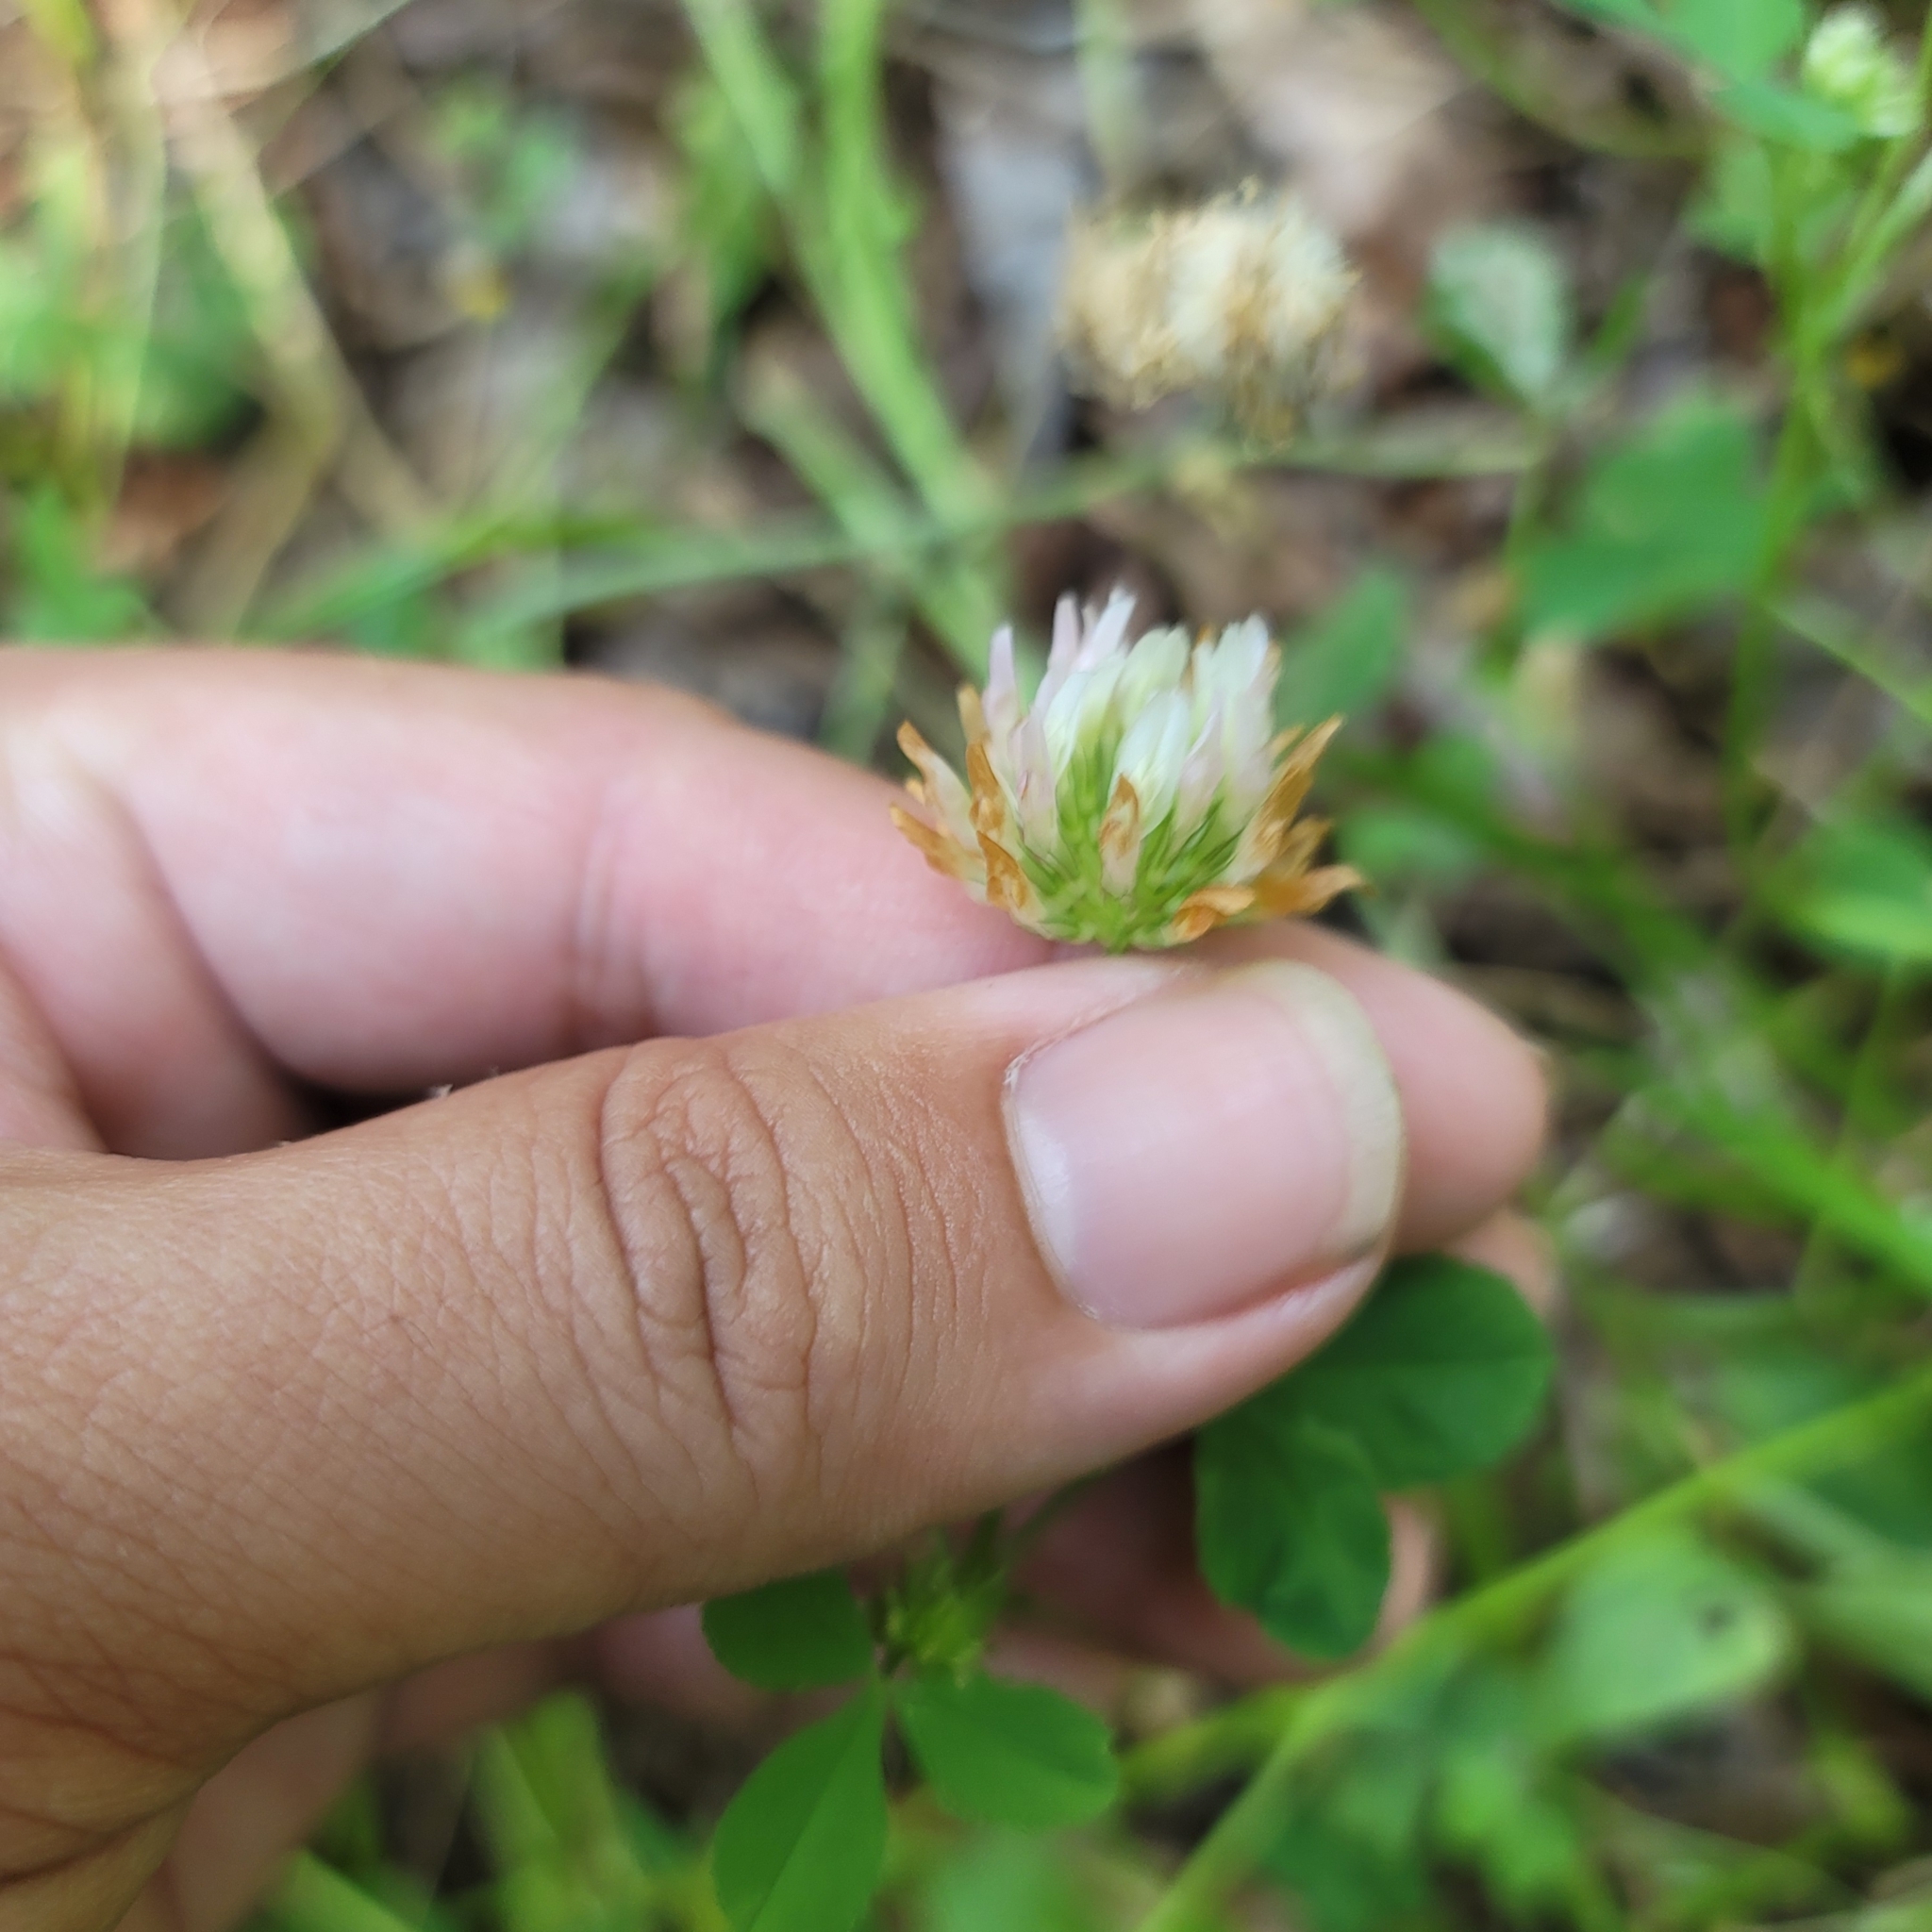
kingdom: Plantae
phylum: Tracheophyta
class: Magnoliopsida
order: Fabales
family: Fabaceae
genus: Trifolium
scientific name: Trifolium michelianum
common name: Bigflower clover
